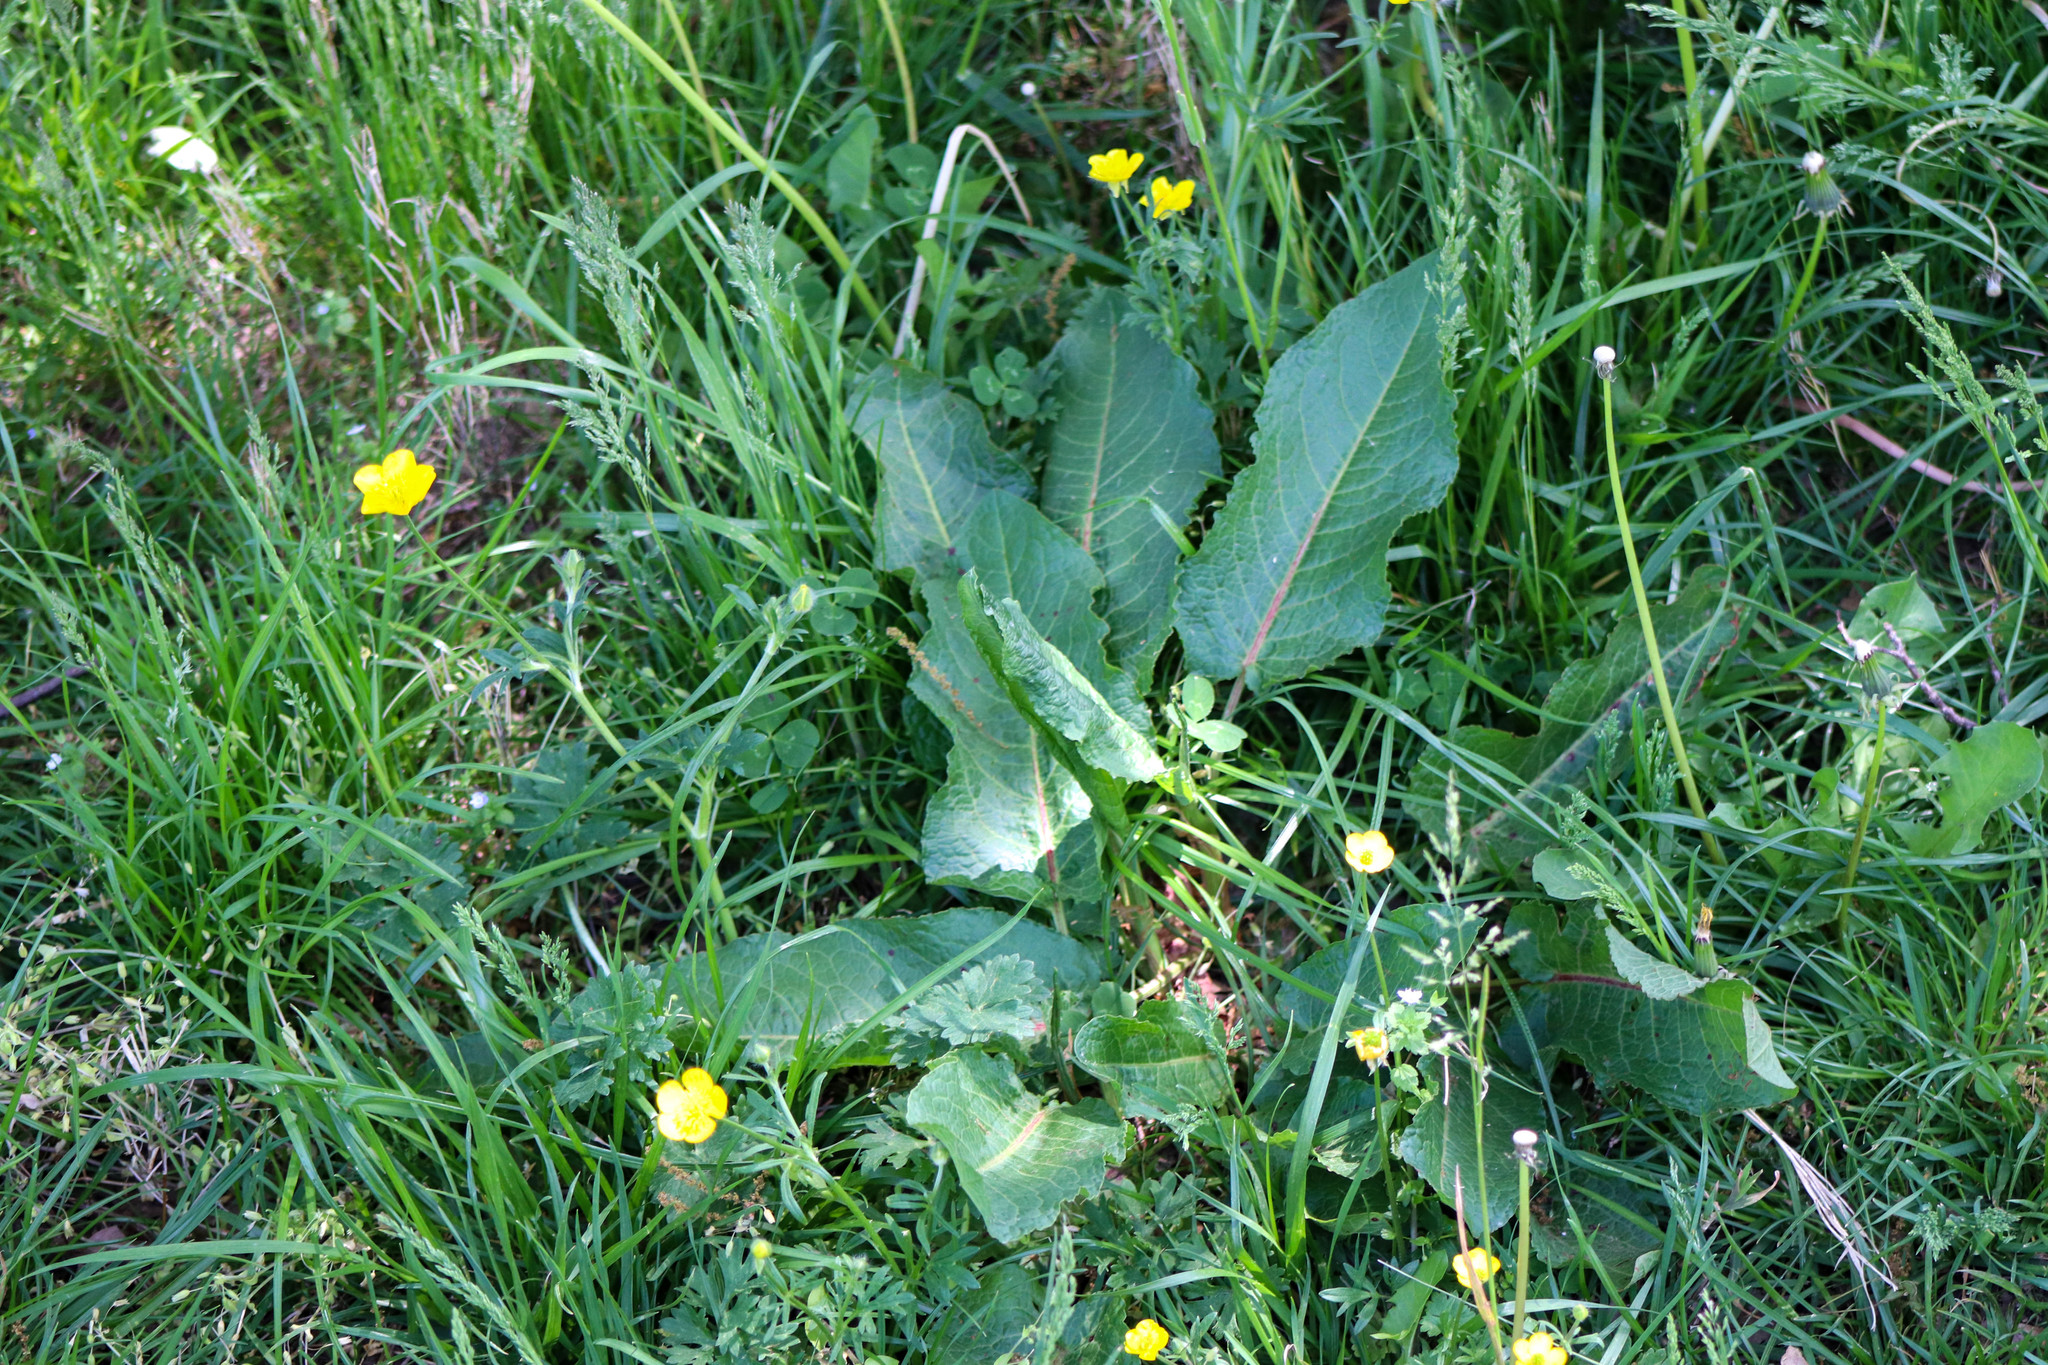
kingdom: Plantae
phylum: Tracheophyta
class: Magnoliopsida
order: Caryophyllales
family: Polygonaceae
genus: Rumex
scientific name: Rumex obtusifolius
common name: Bitter dock
